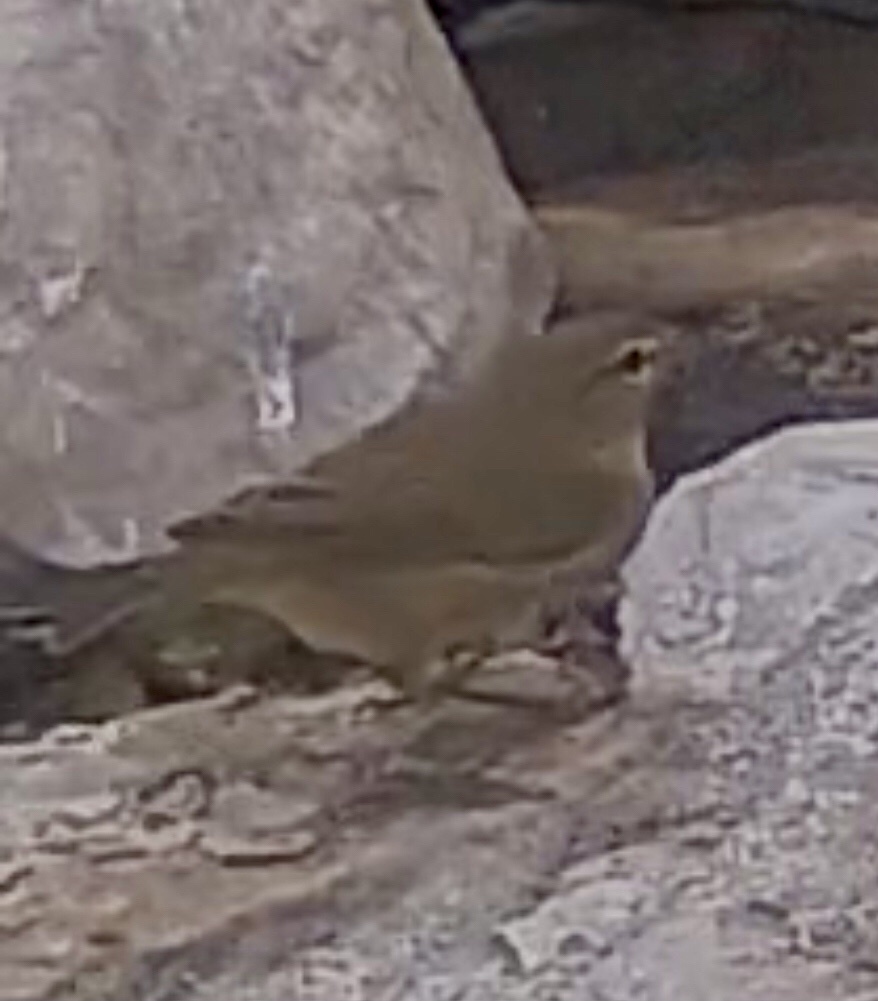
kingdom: Animalia
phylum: Chordata
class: Aves
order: Passeriformes
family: Phylloscopidae
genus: Phylloscopus
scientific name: Phylloscopus collybita
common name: Common chiffchaff
